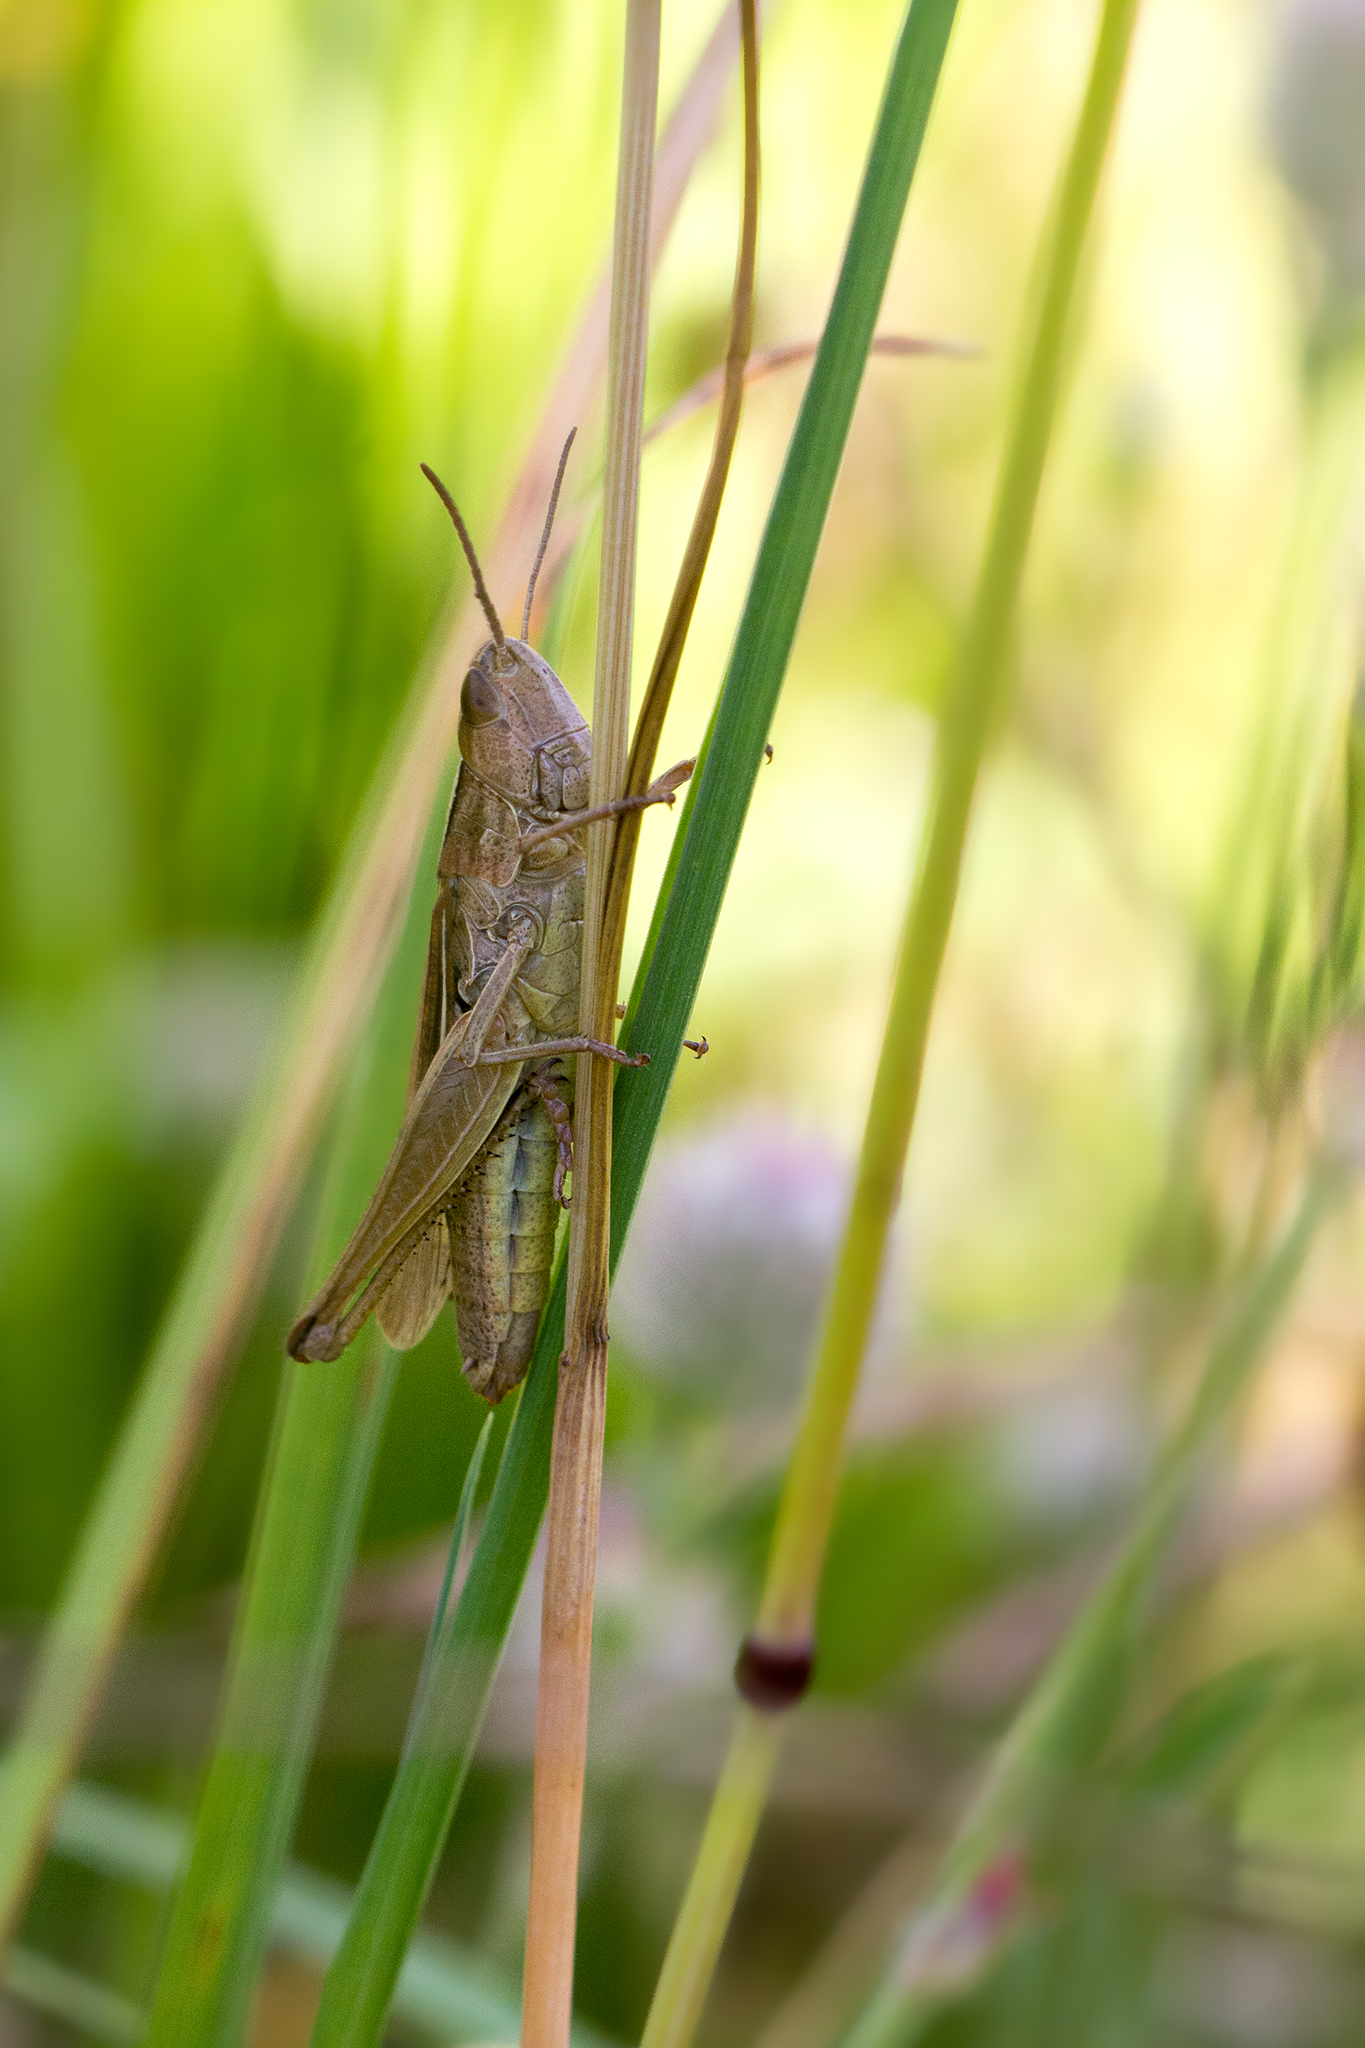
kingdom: Animalia
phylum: Arthropoda
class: Insecta
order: Orthoptera
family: Acrididae
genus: Chorthippus
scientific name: Chorthippus albomarginatus
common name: Lesser marsh grasshopper
